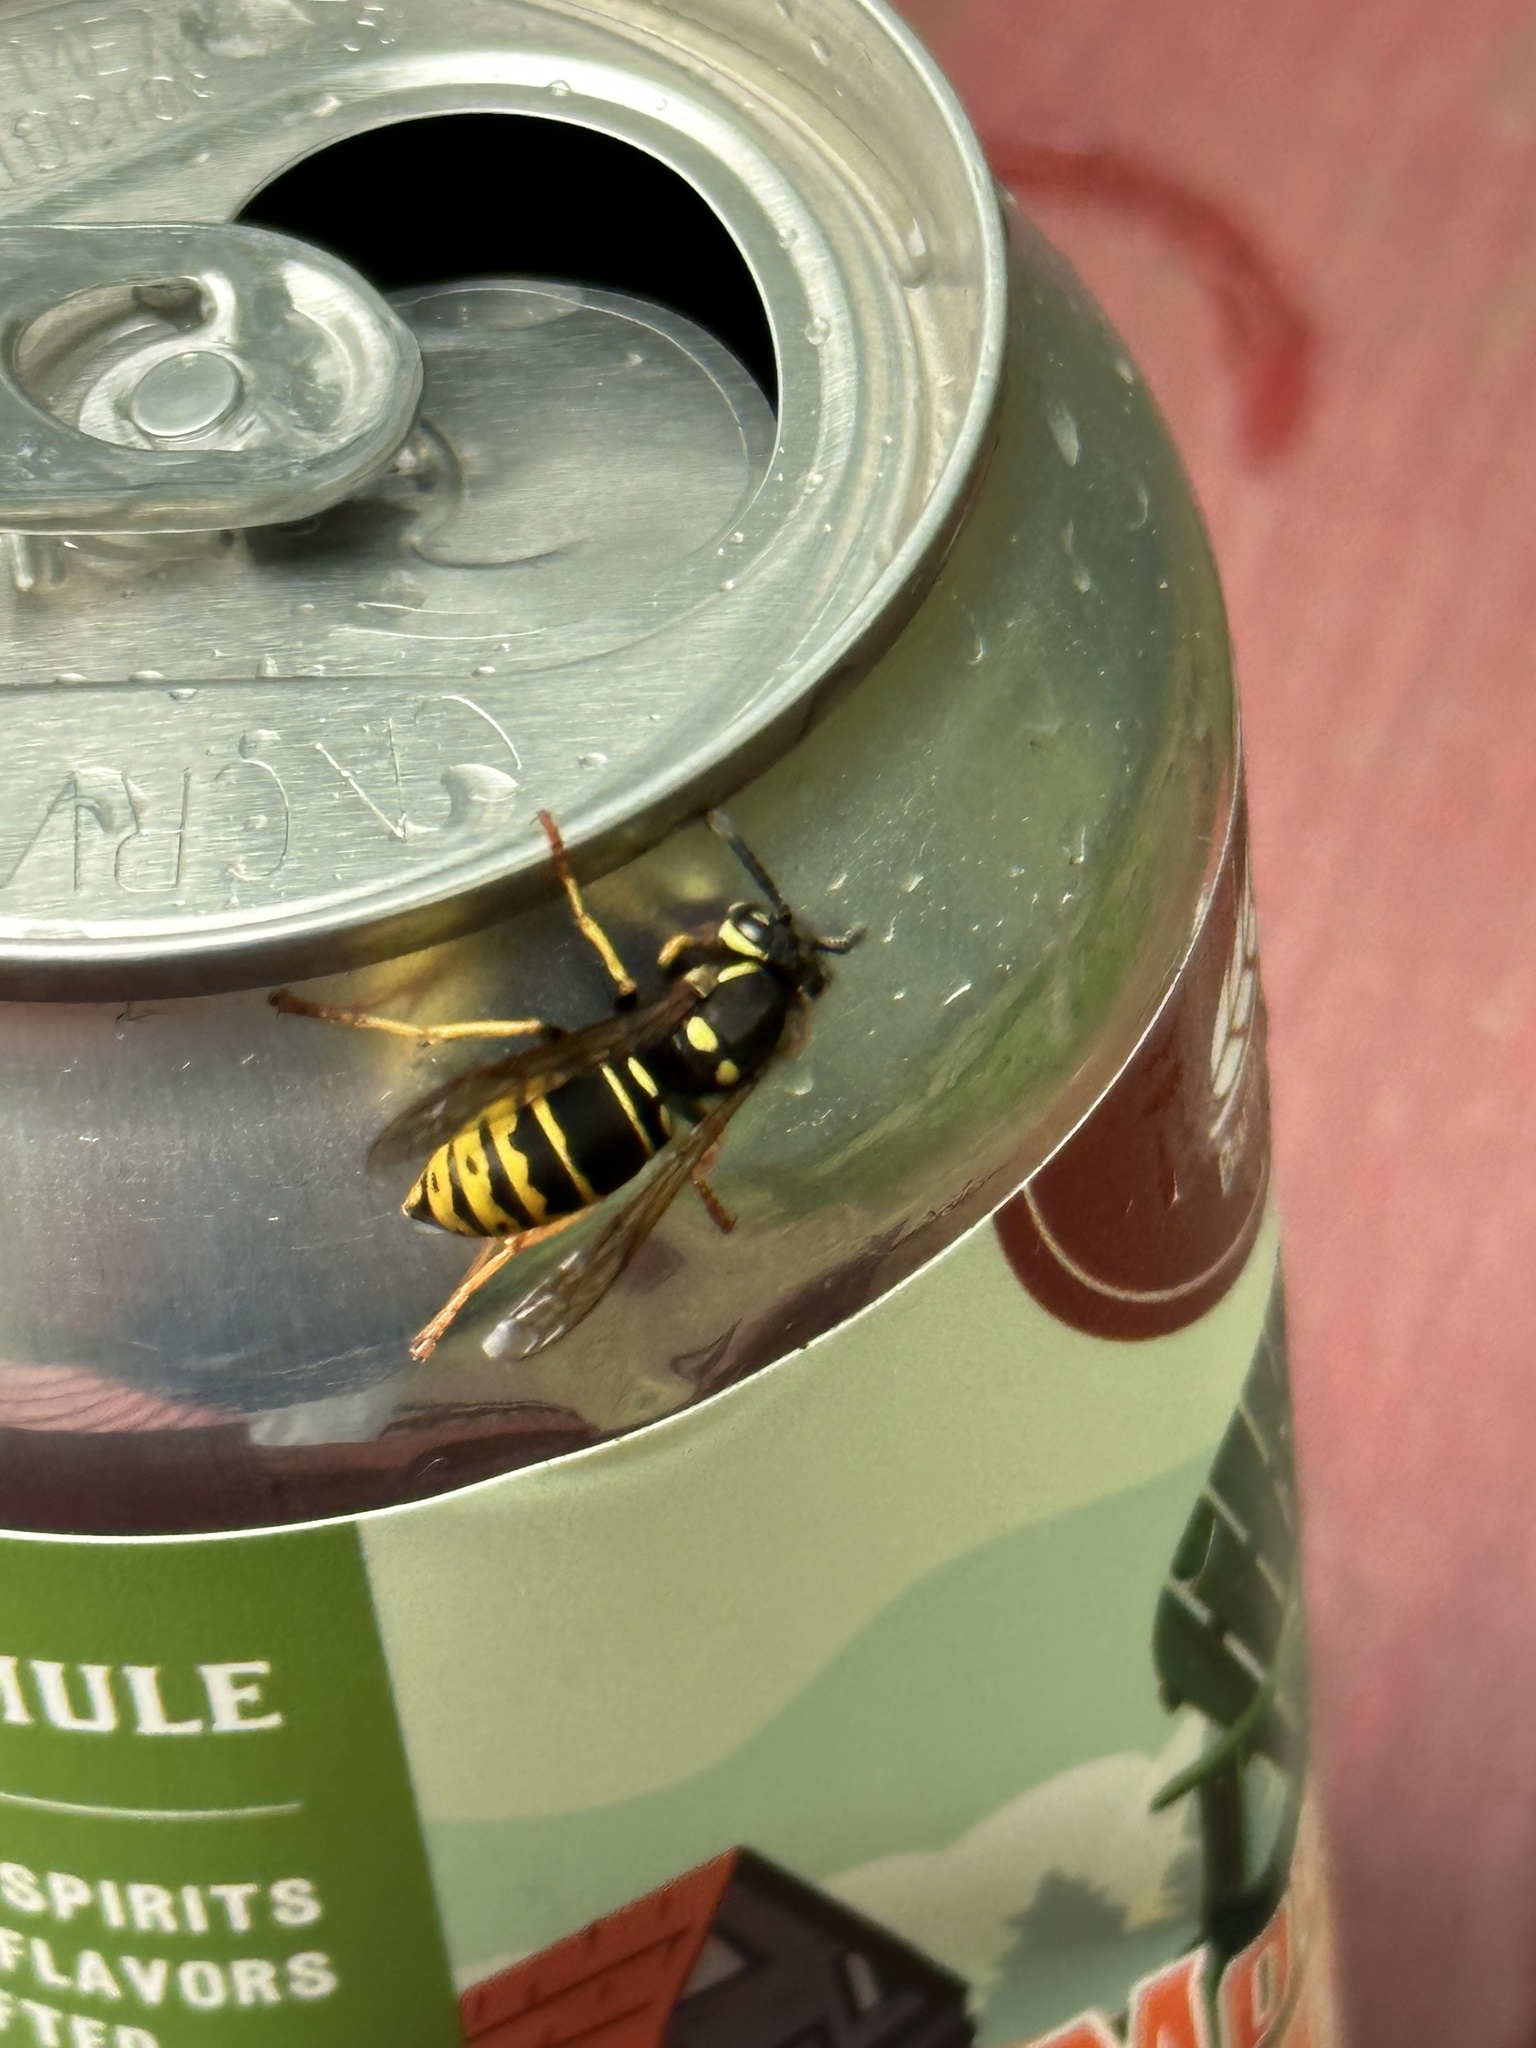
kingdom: Animalia
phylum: Arthropoda
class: Insecta
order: Hymenoptera
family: Vespidae
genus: Vespula
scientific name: Vespula vidua
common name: Widow yellowjacket
